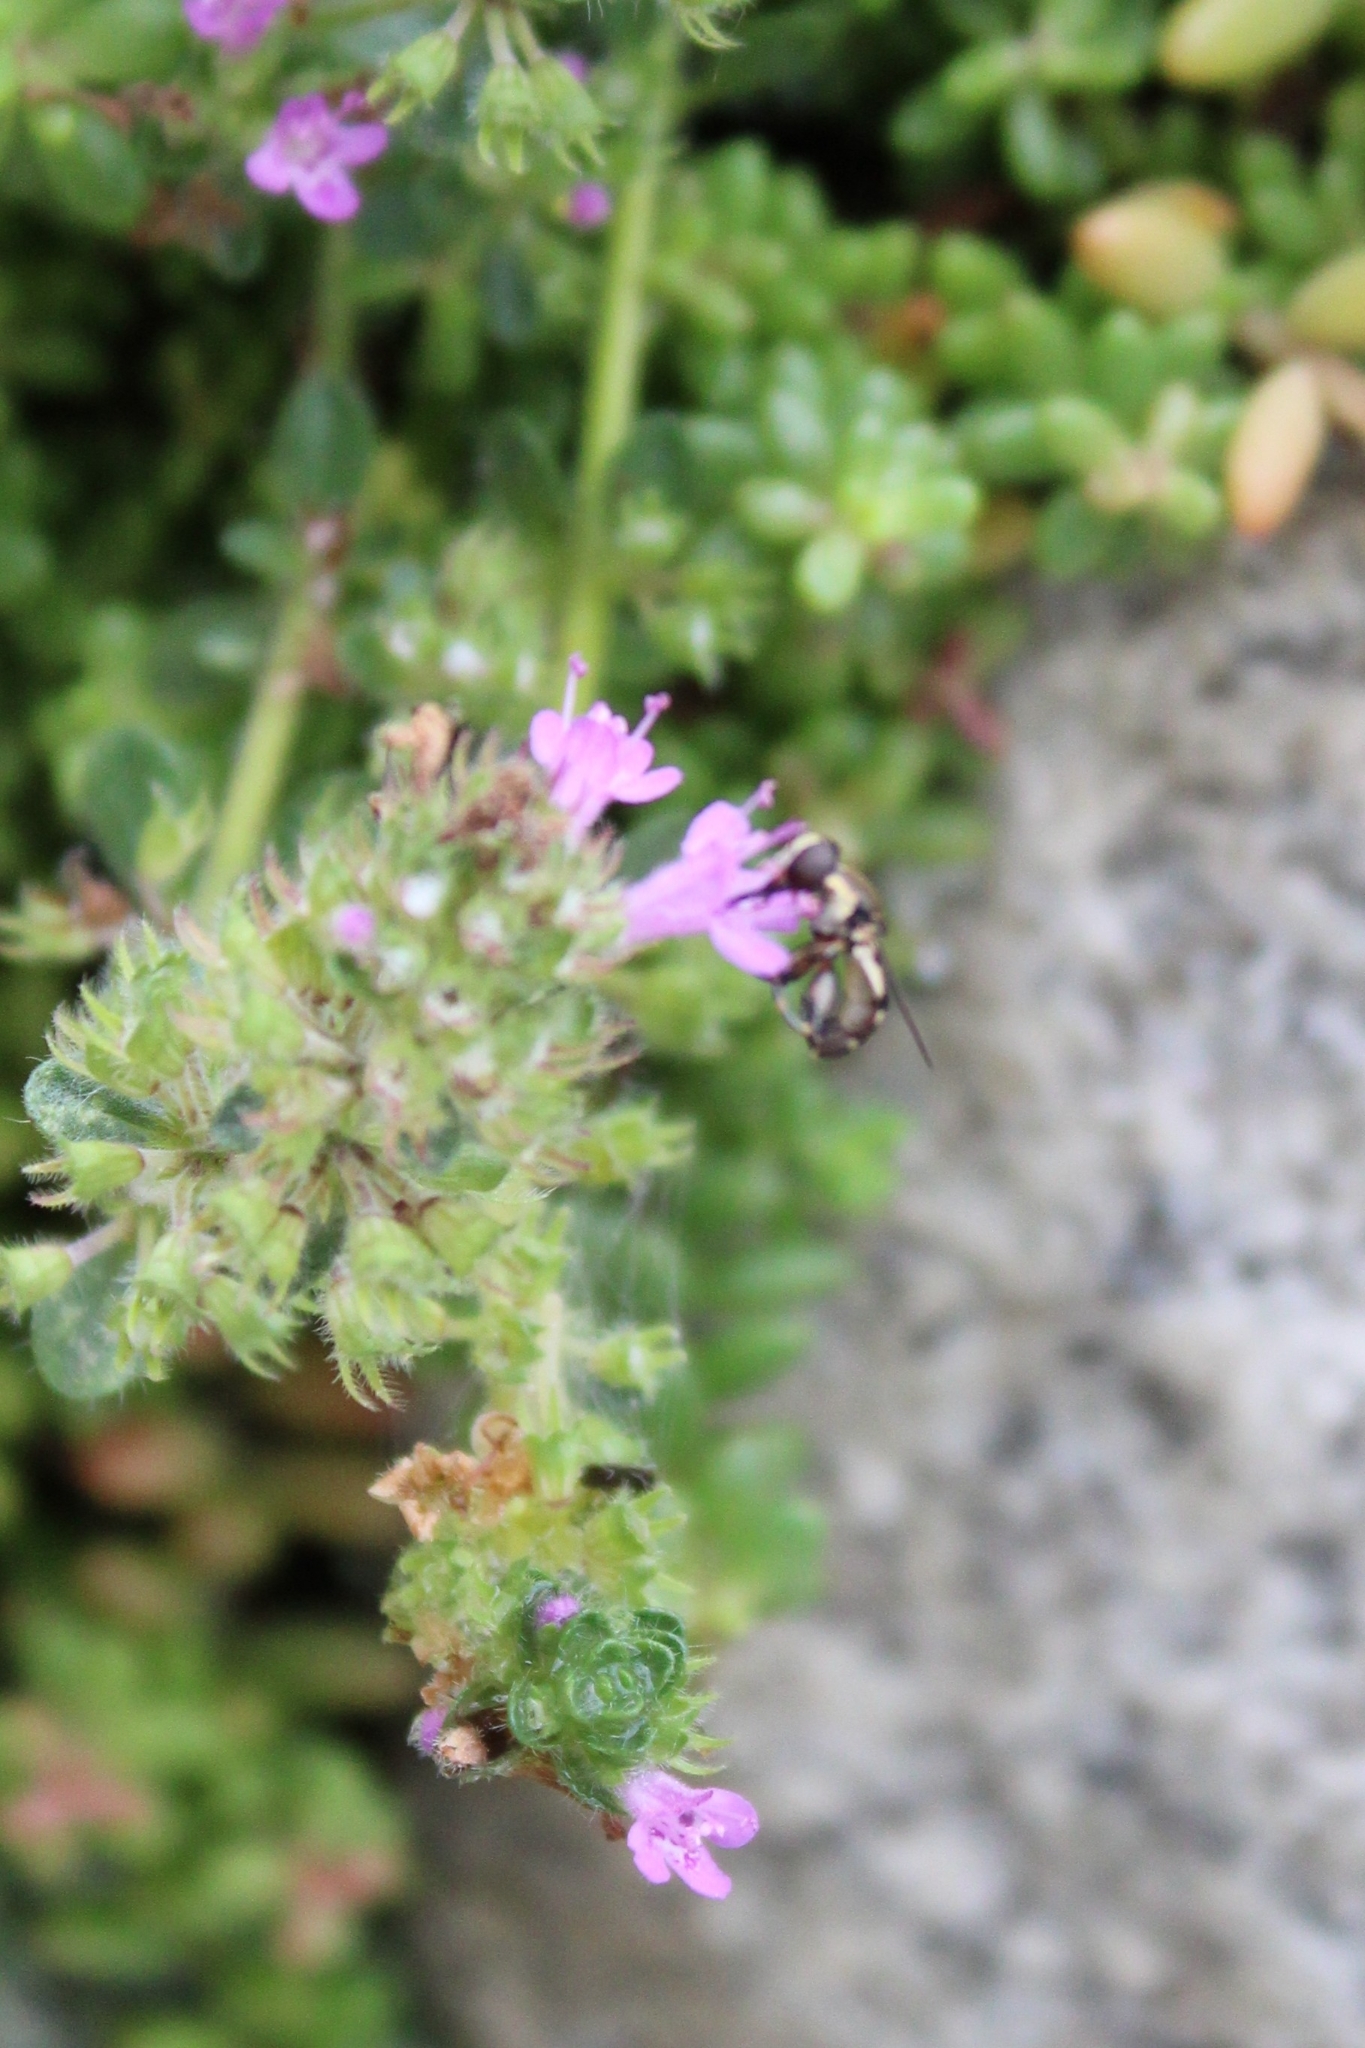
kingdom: Animalia
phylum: Arthropoda
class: Insecta
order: Diptera
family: Syrphidae
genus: Syritta
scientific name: Syritta pipiens
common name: Hover fly
